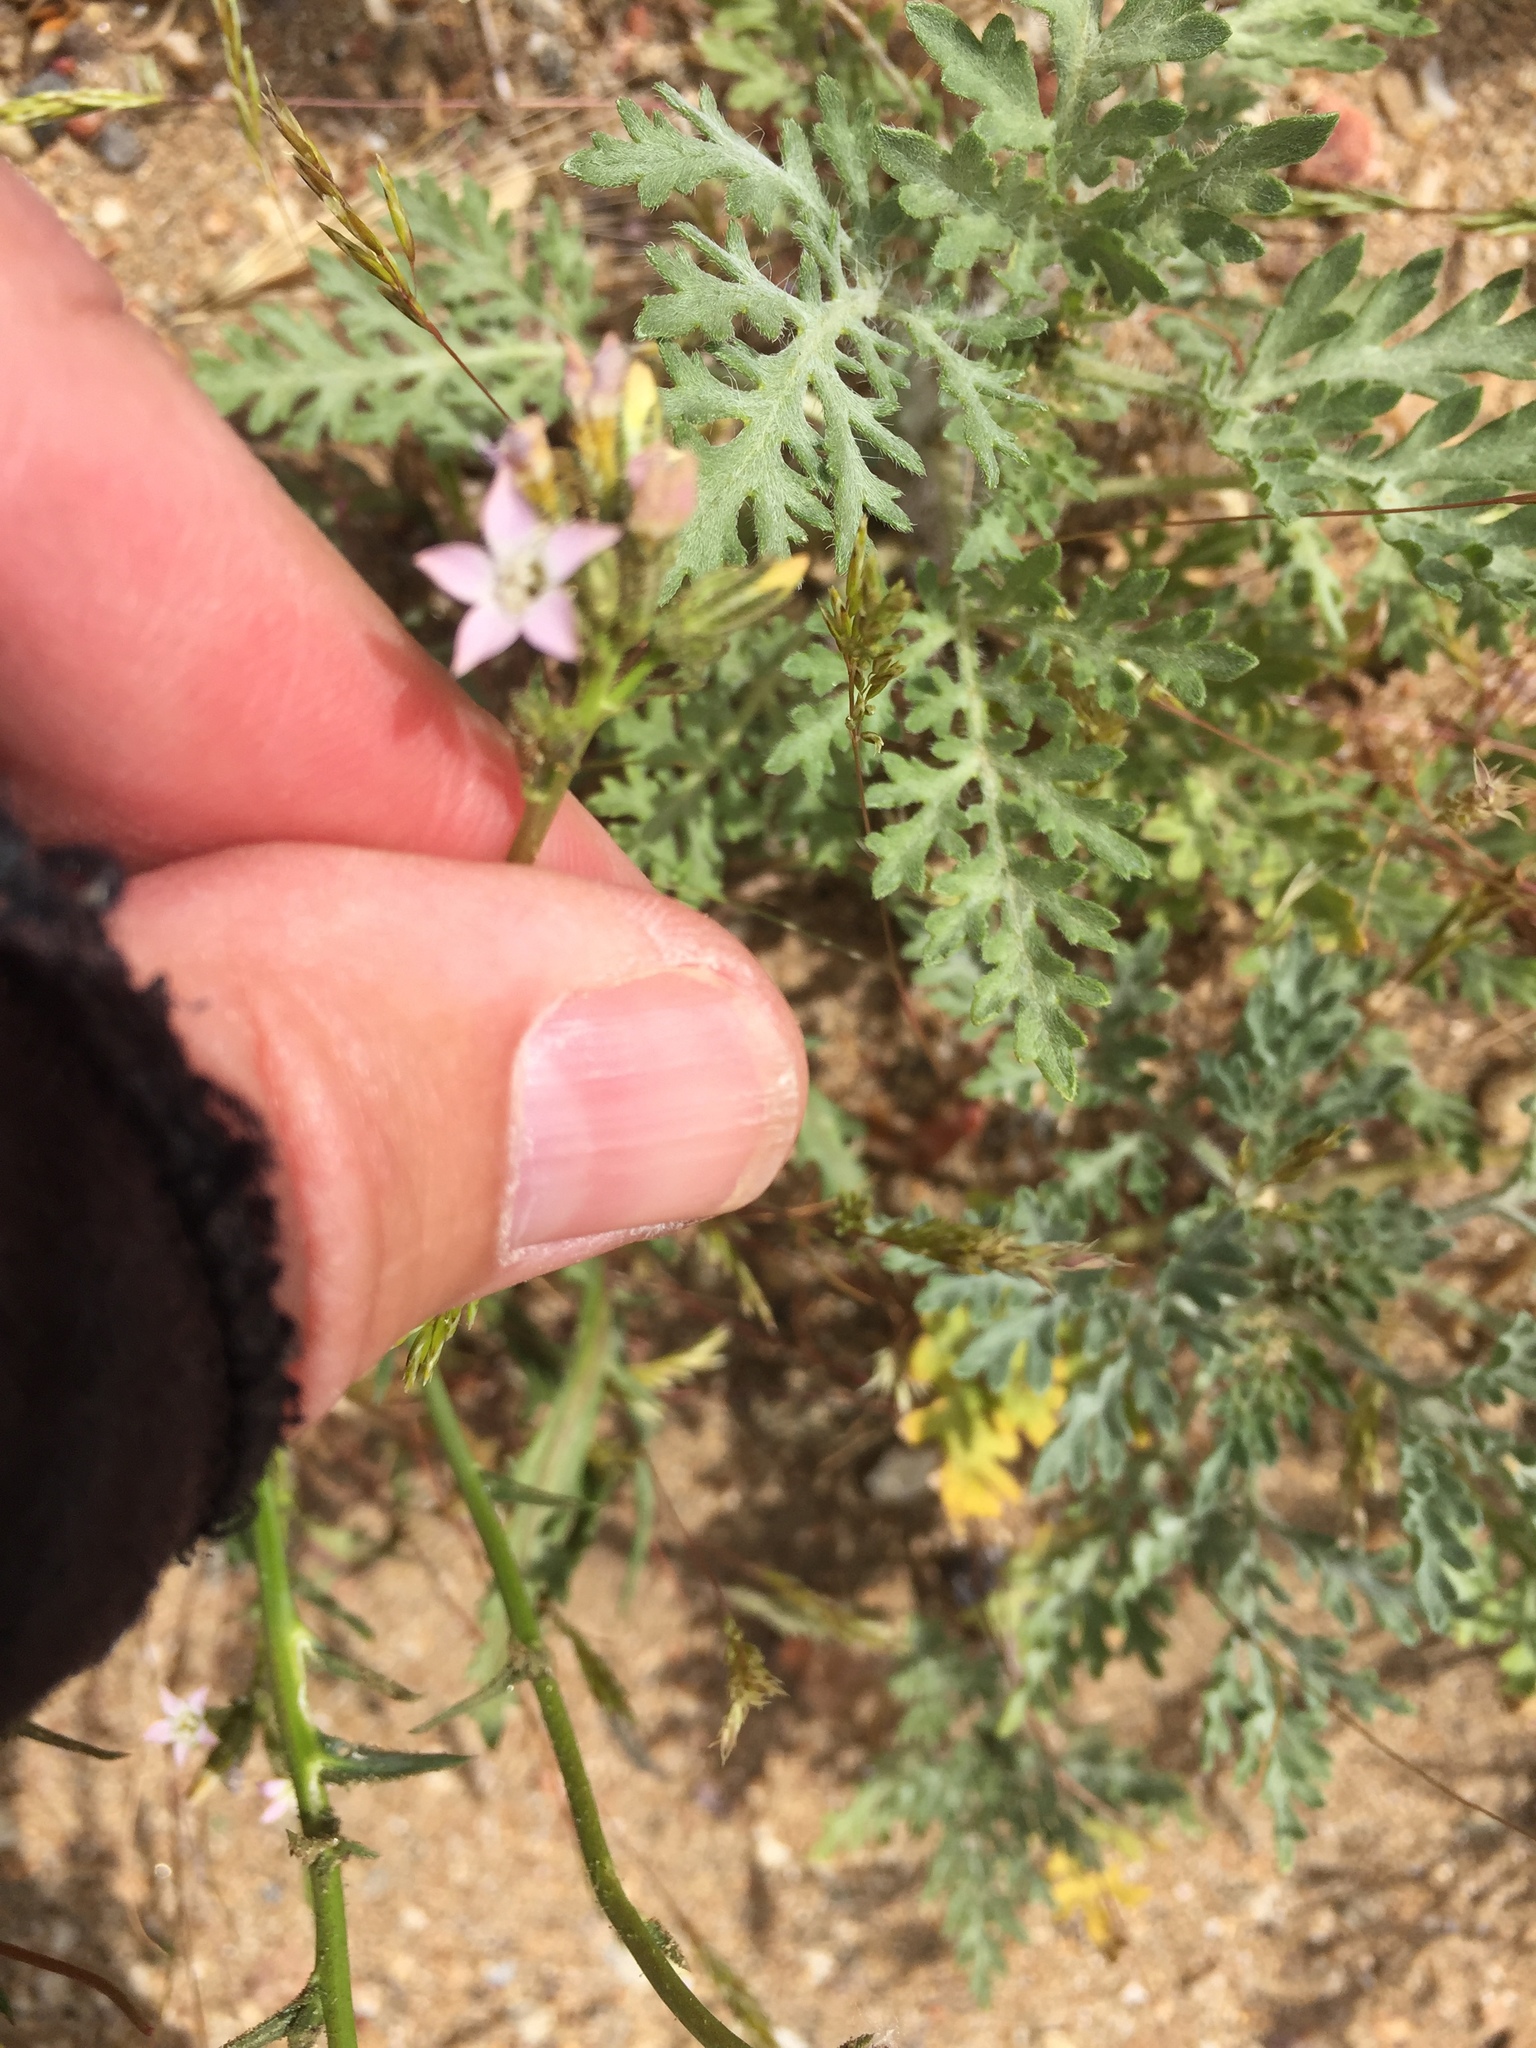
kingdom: Plantae
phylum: Tracheophyta
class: Magnoliopsida
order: Ericales
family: Polemoniaceae
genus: Gilia
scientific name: Gilia diegensis
